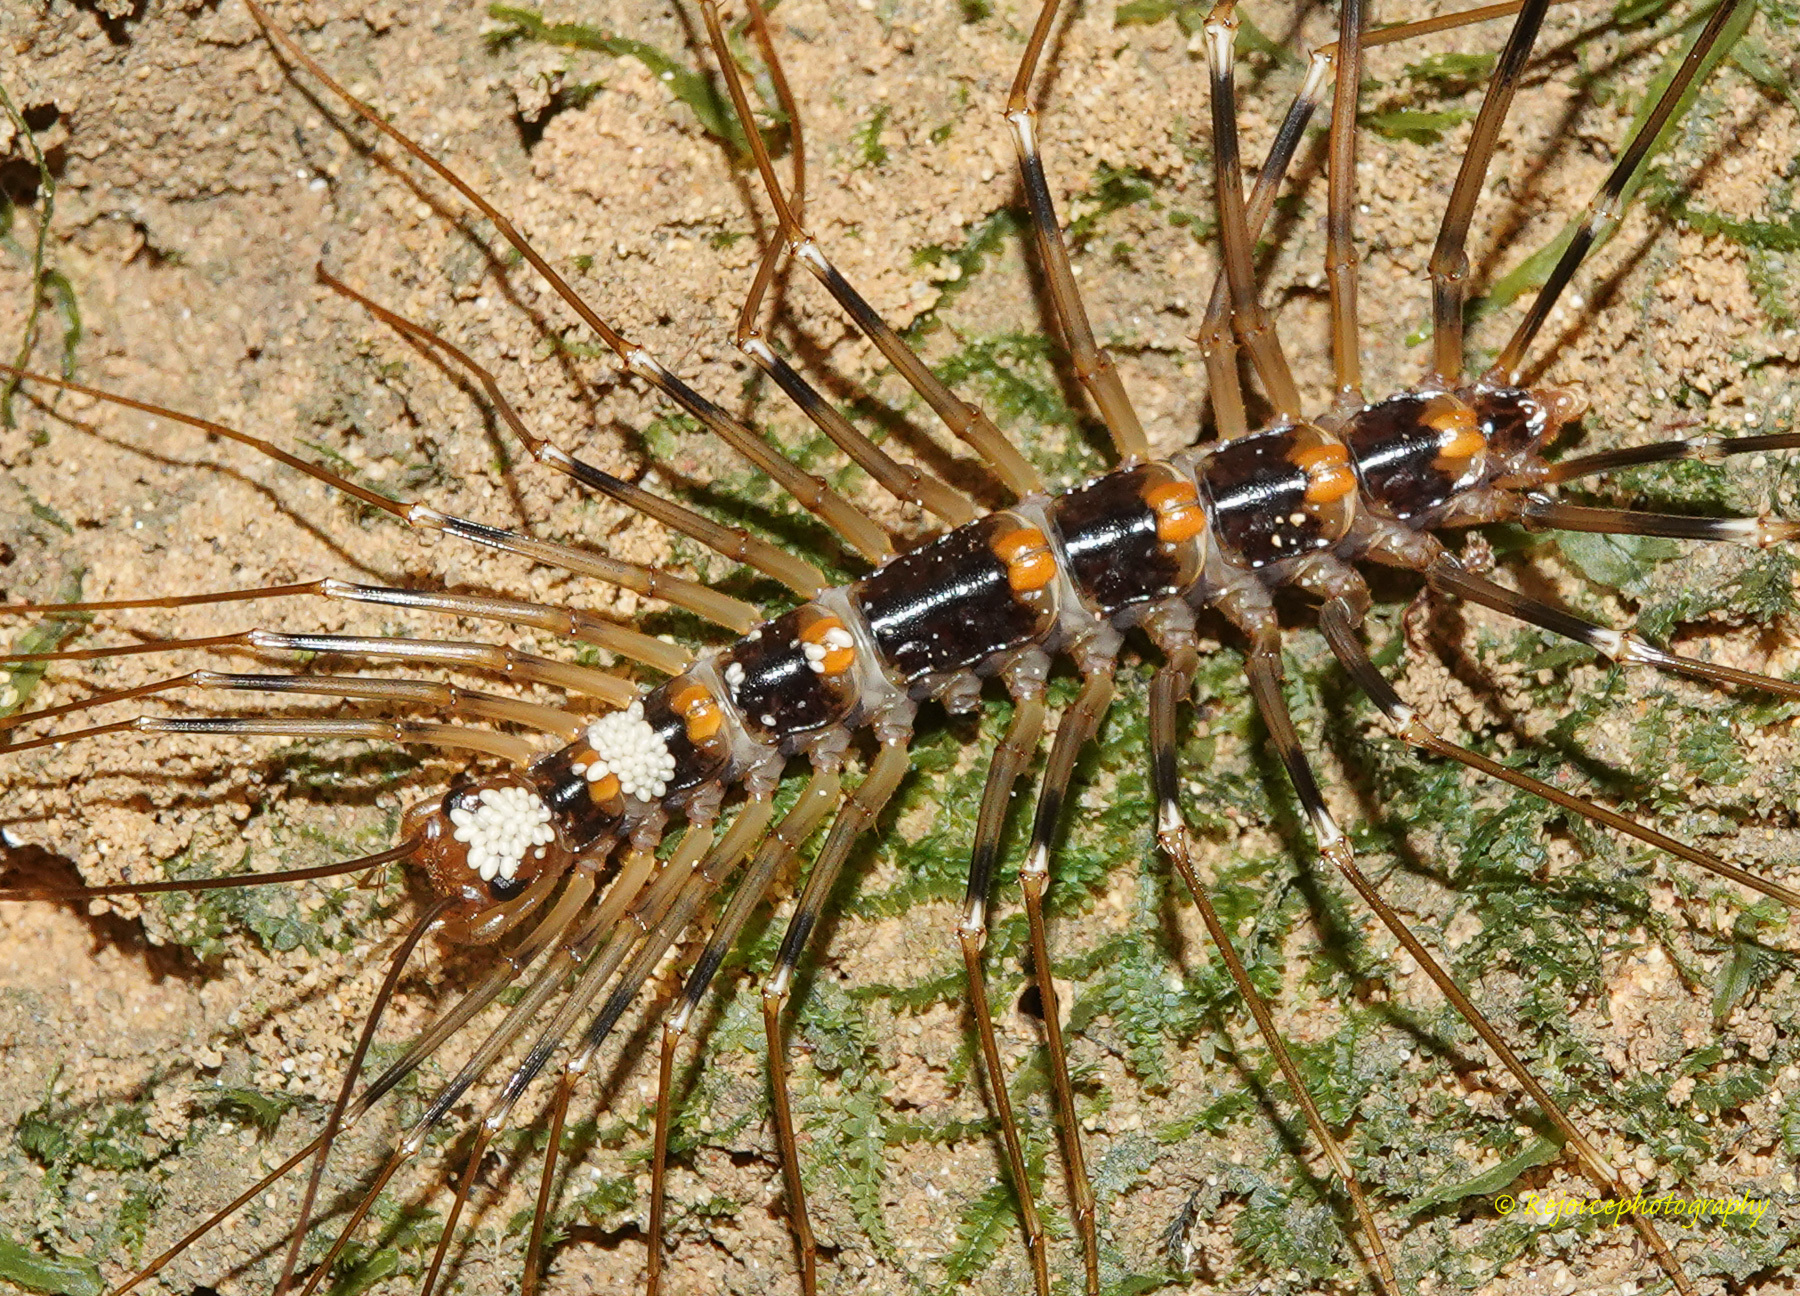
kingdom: Animalia
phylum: Arthropoda
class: Chilopoda
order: Scutigeromorpha
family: Scutigeridae
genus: Thereuopoda
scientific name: Thereuopoda longicornis
